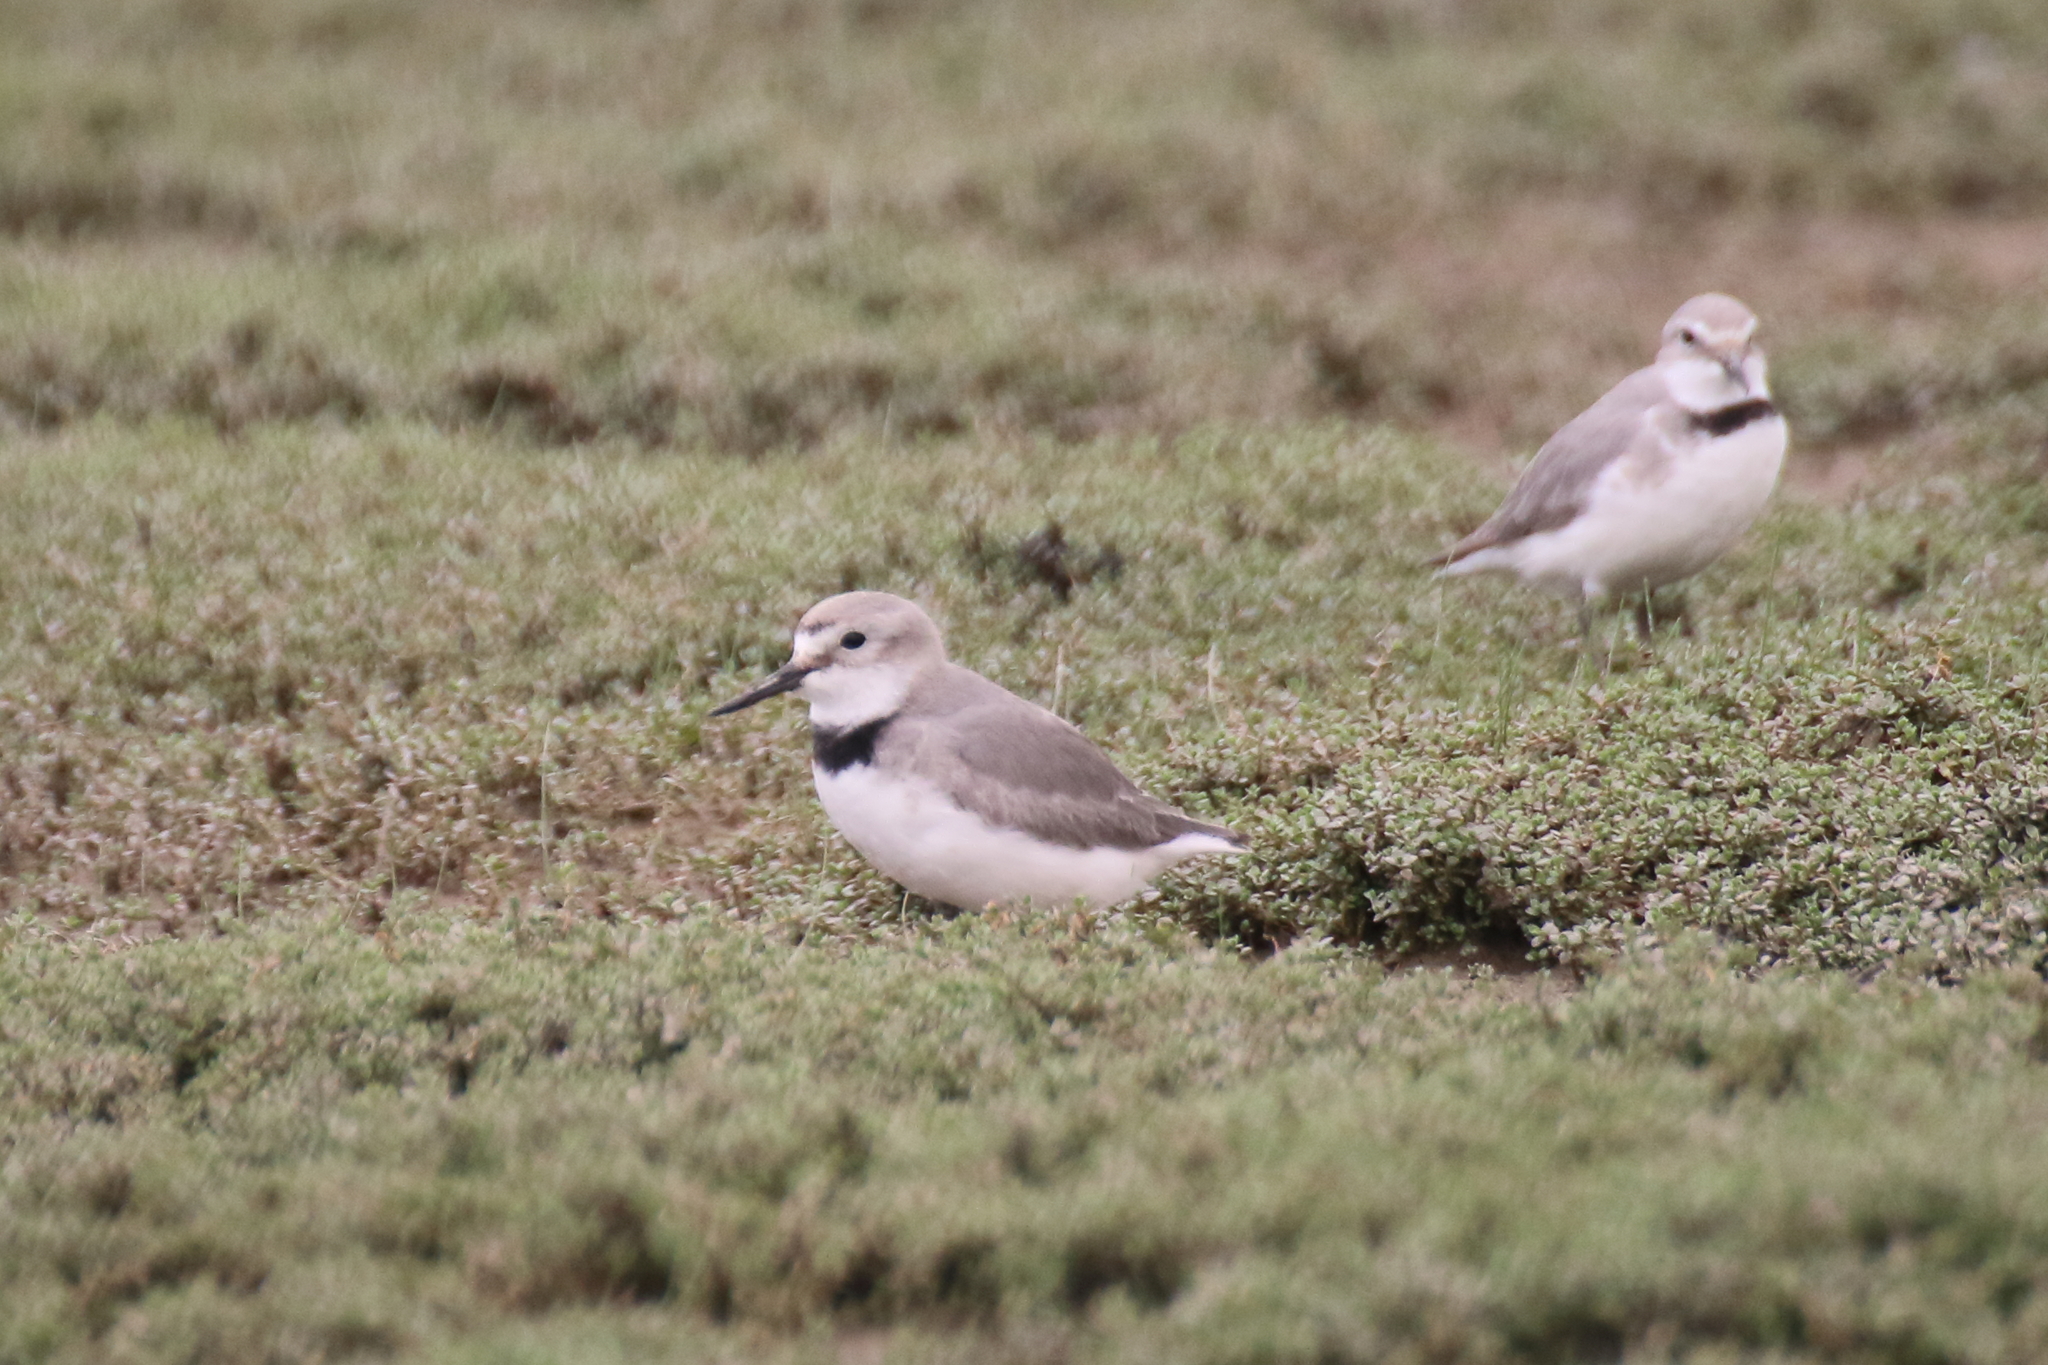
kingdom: Animalia
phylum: Chordata
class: Aves
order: Charadriiformes
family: Charadriidae
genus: Anarhynchus
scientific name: Anarhynchus frontalis
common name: Wrybill
